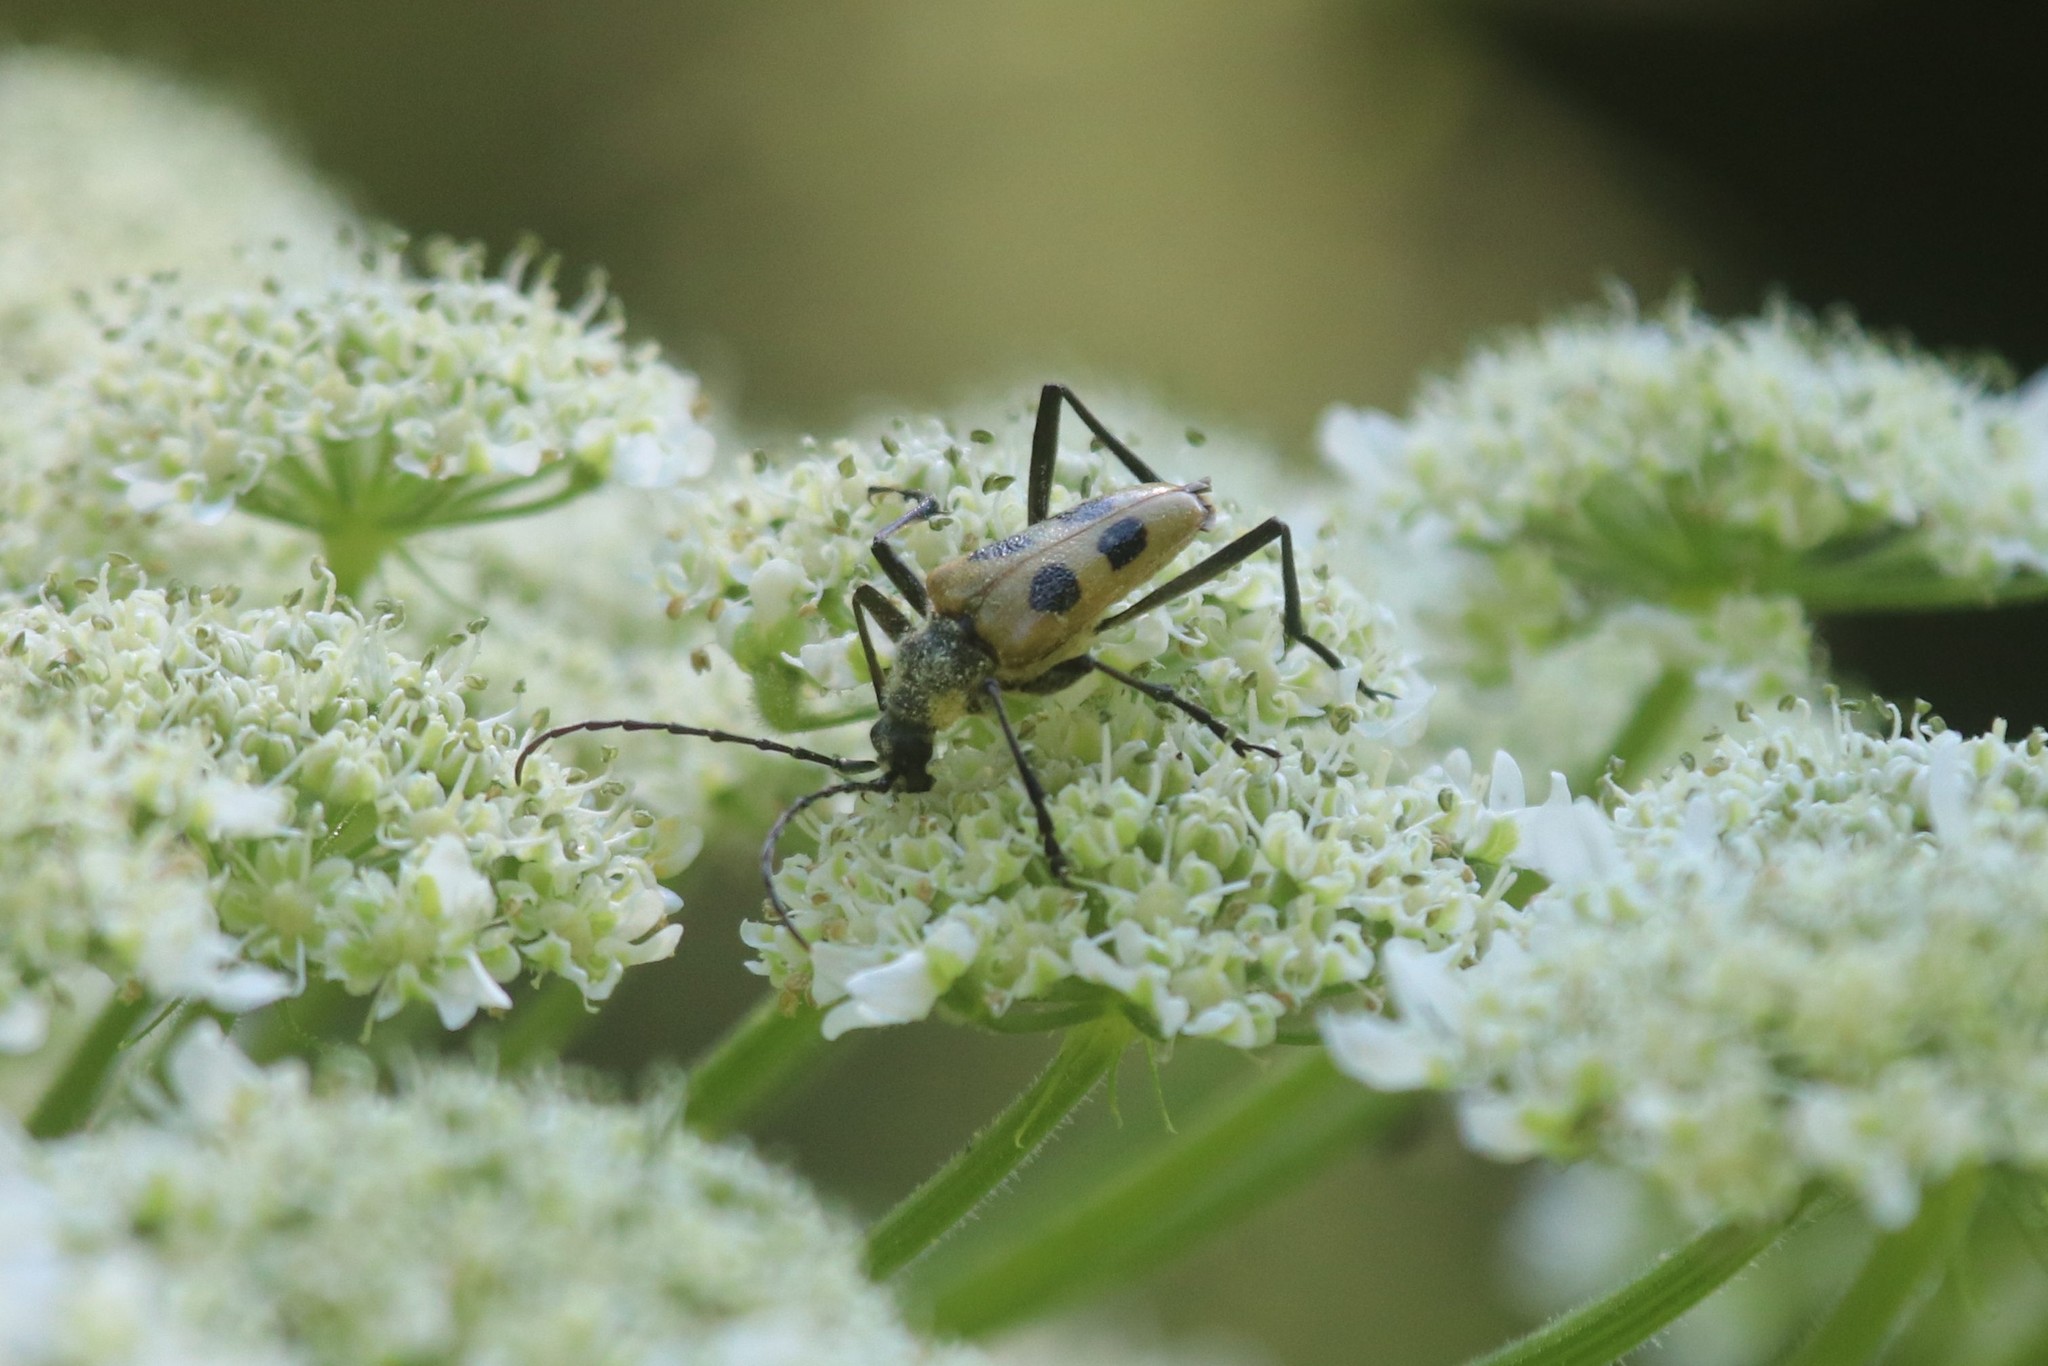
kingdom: Animalia
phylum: Arthropoda
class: Insecta
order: Coleoptera
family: Cerambycidae
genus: Pachyta
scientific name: Pachyta quadrimaculata
